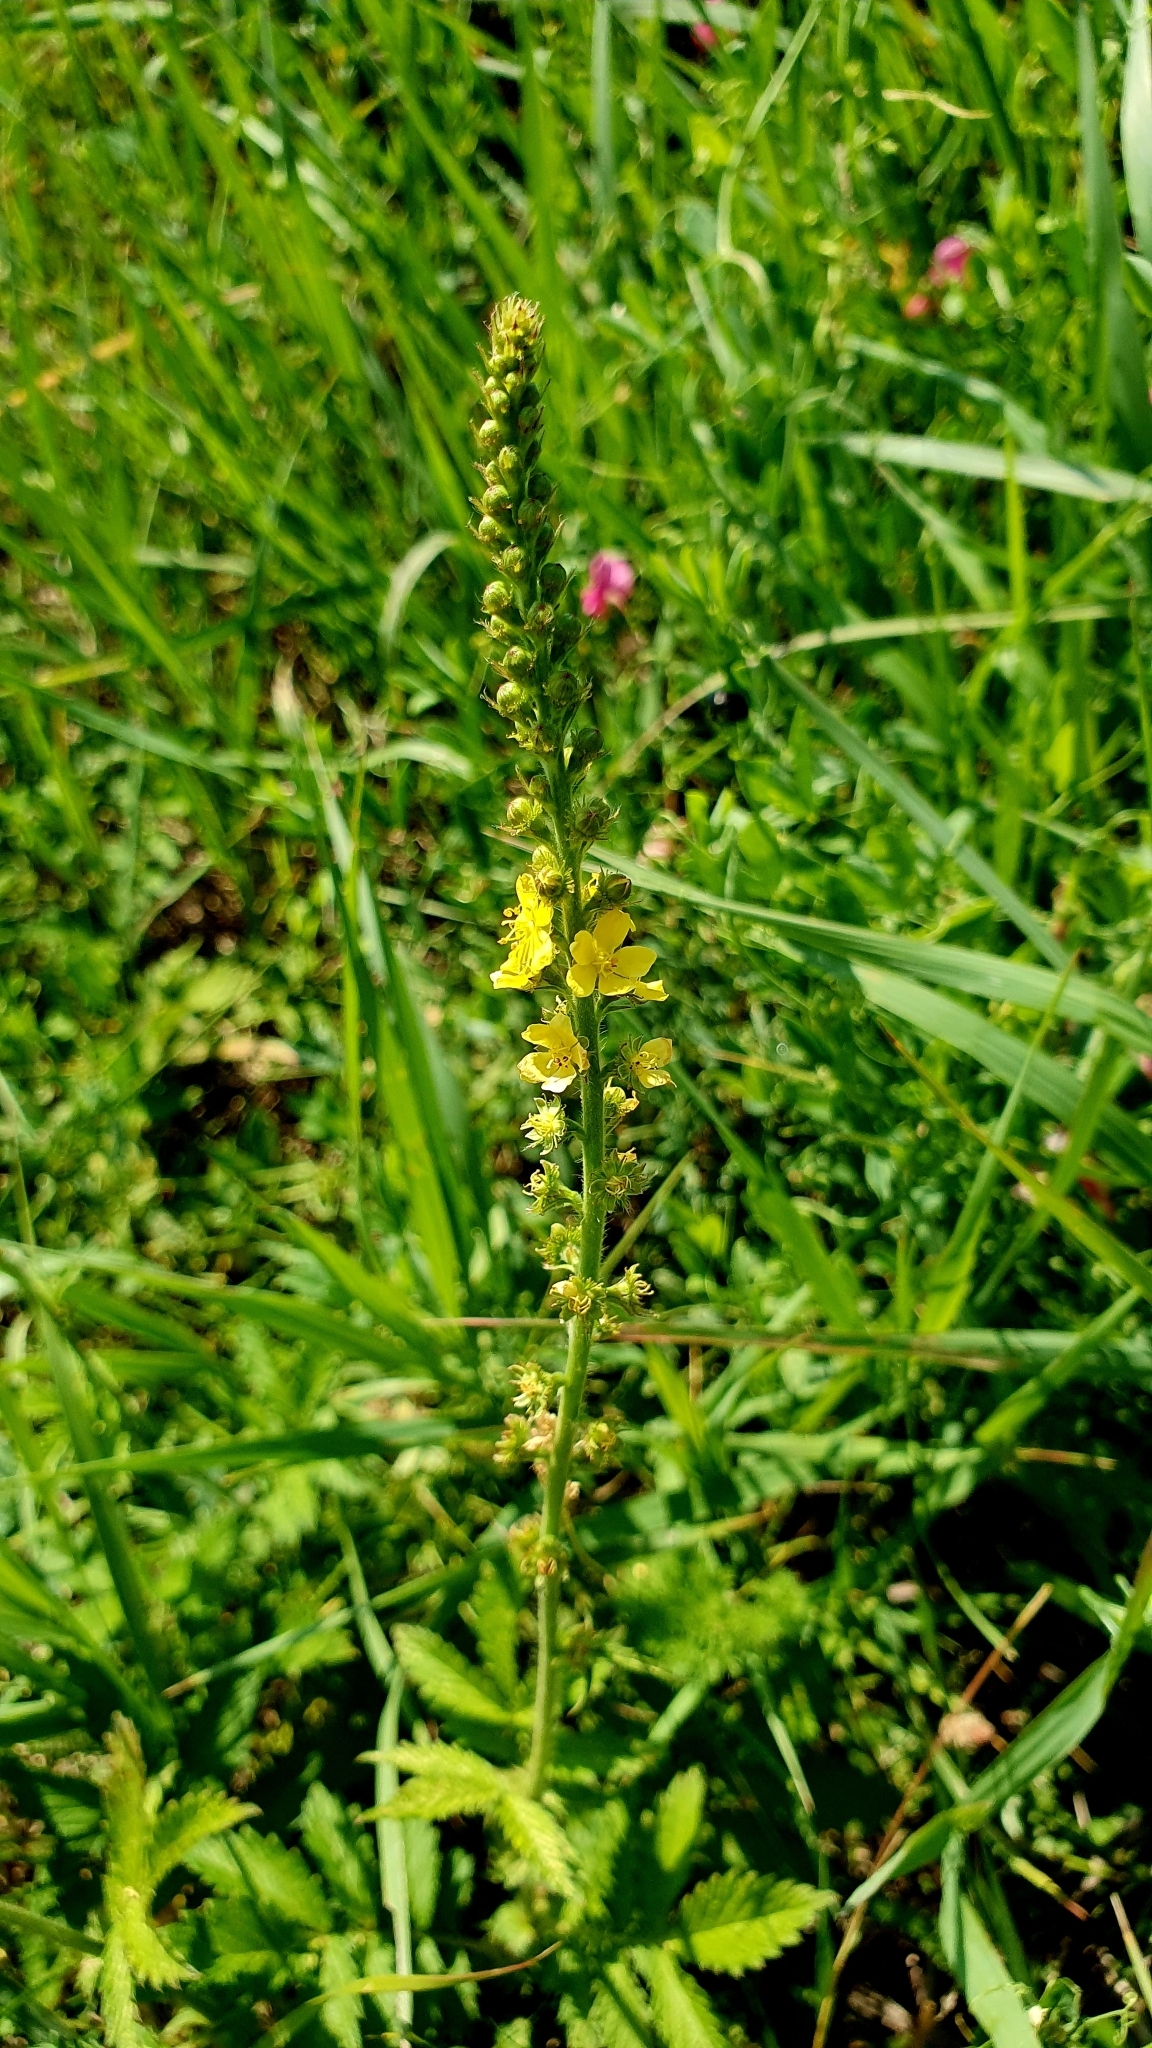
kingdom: Plantae
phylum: Tracheophyta
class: Magnoliopsida
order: Rosales
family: Rosaceae
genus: Agrimonia
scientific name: Agrimonia eupatoria
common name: Agrimony
